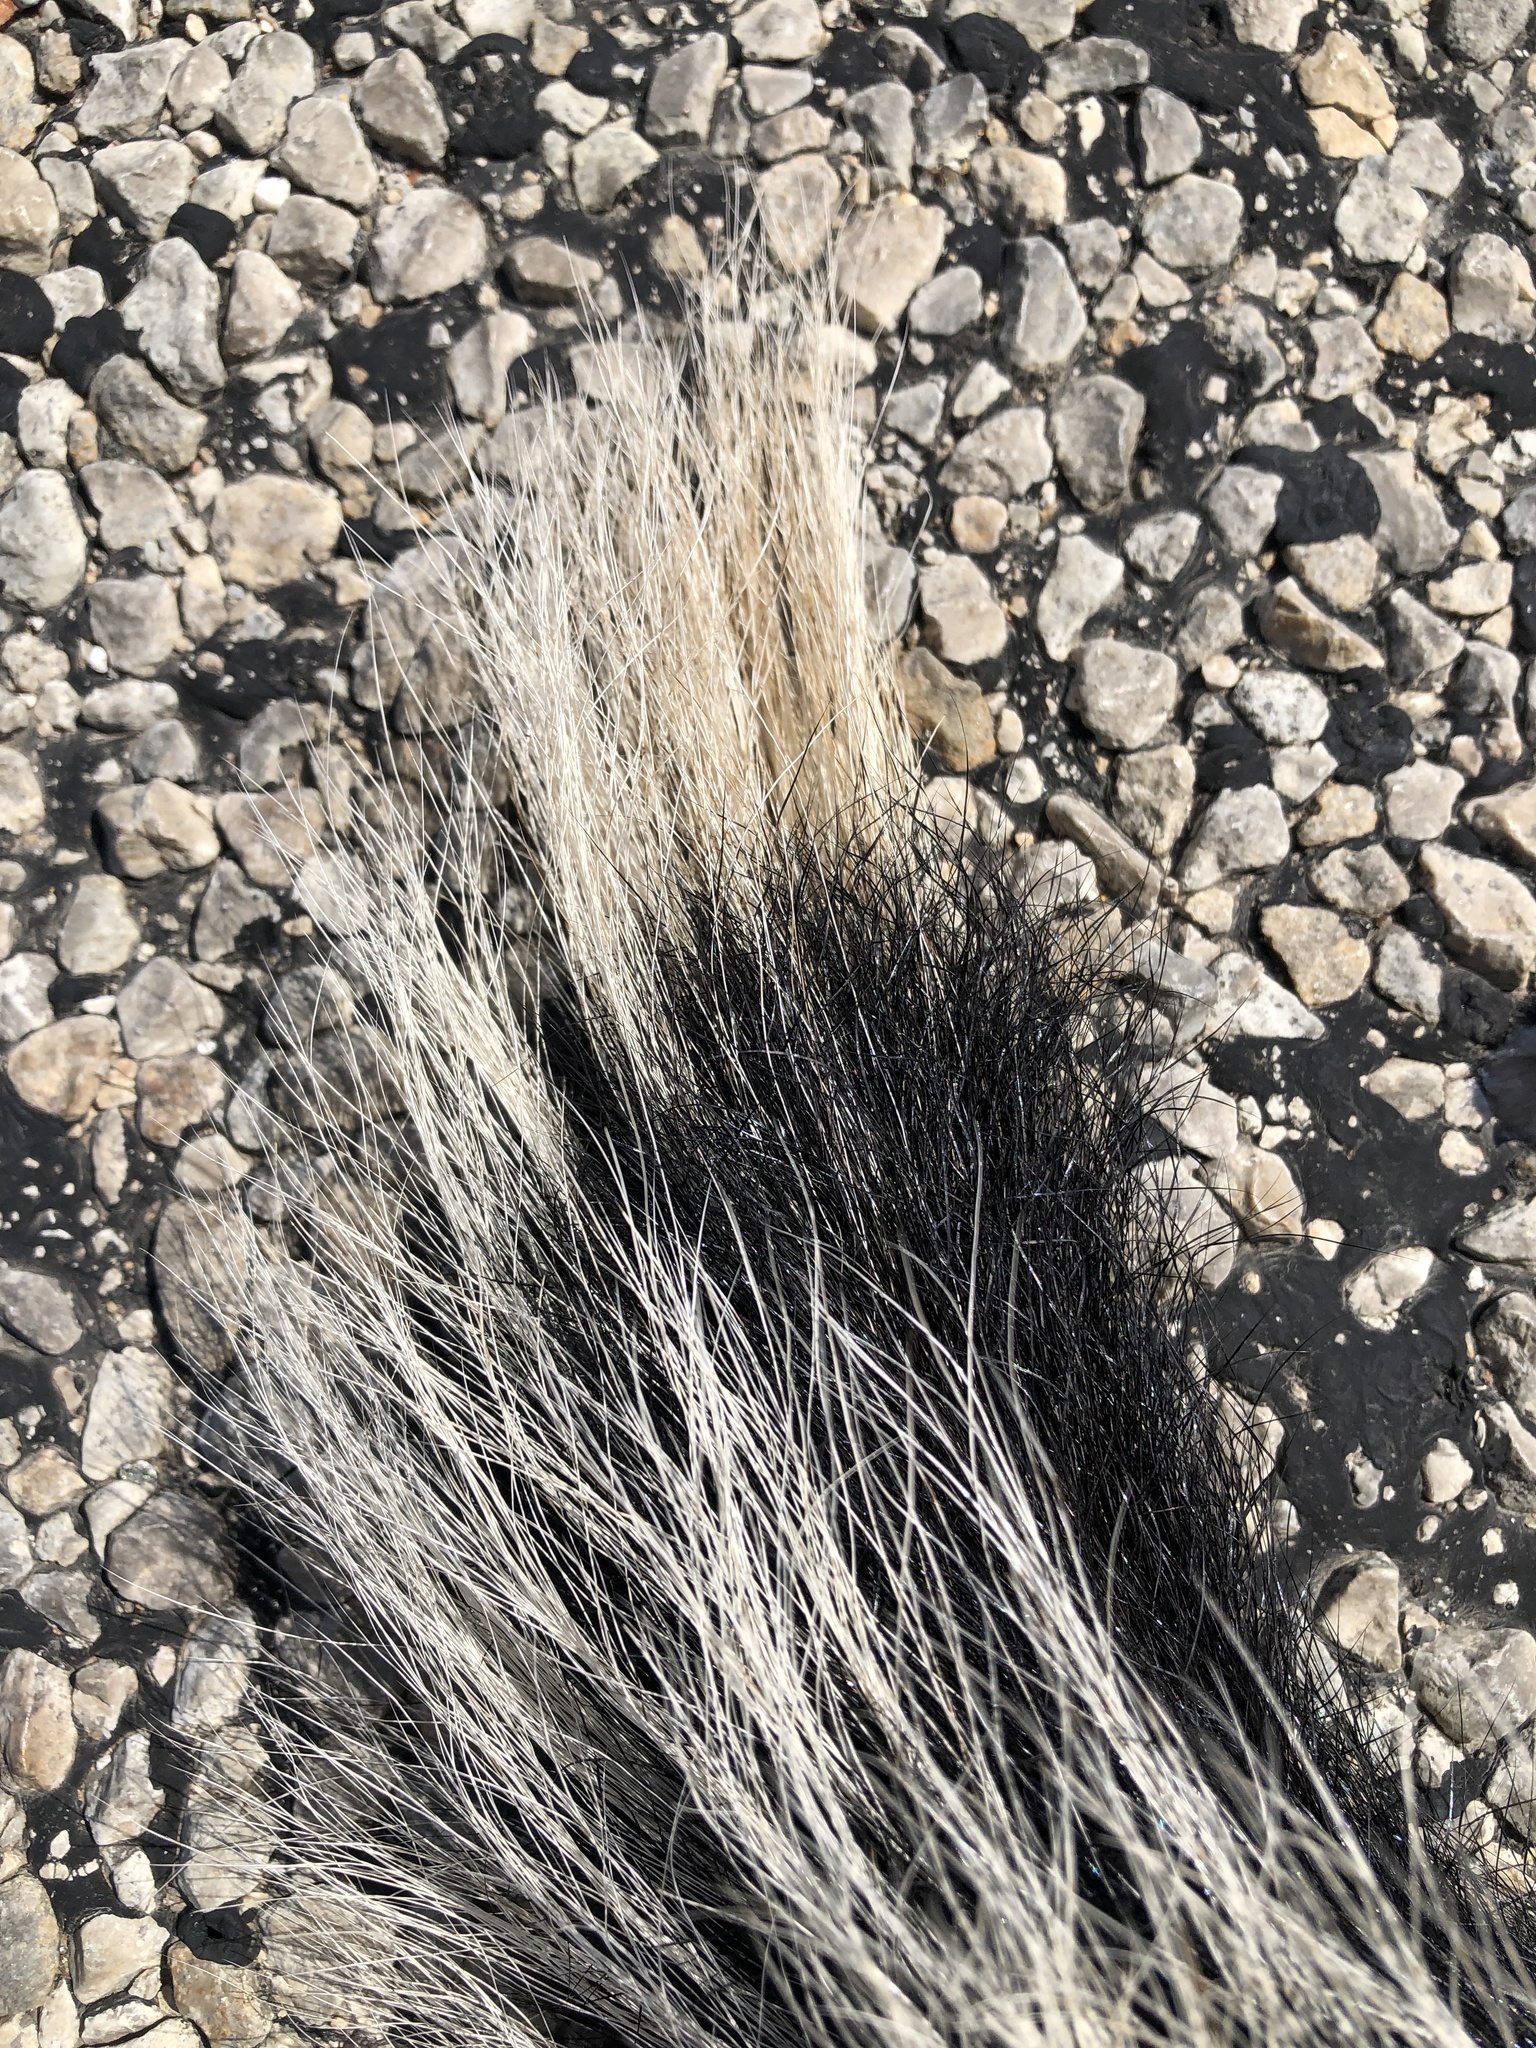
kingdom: Animalia
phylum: Chordata
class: Mammalia
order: Carnivora
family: Mephitidae
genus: Mephitis
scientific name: Mephitis mephitis
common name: Striped skunk
